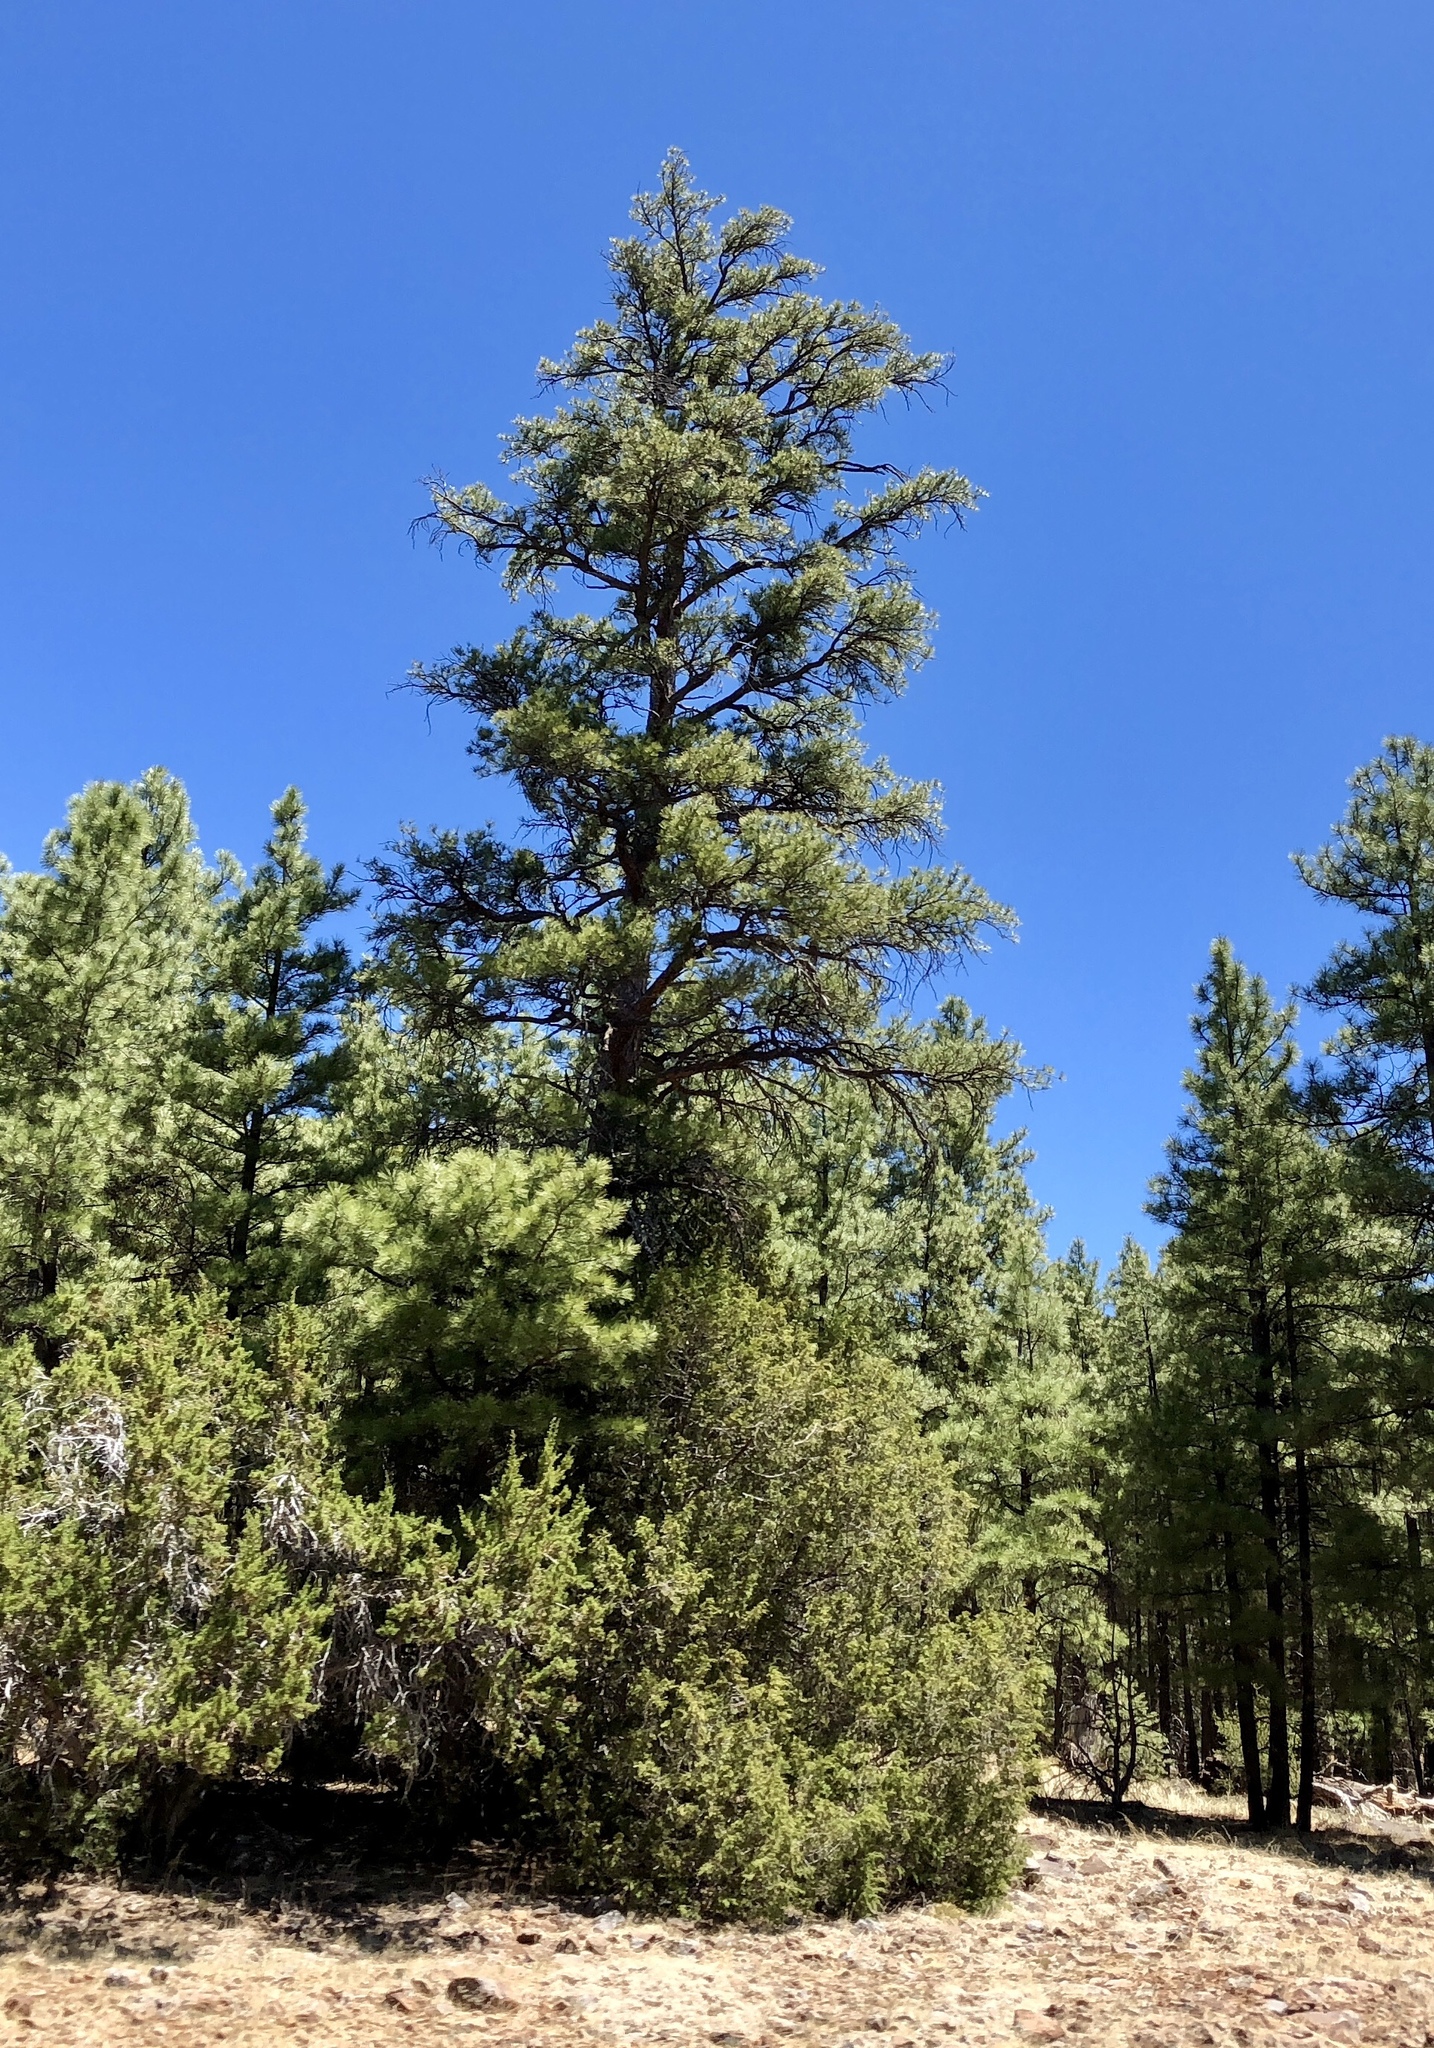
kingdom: Plantae
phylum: Tracheophyta
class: Pinopsida
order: Pinales
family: Pinaceae
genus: Pinus
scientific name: Pinus ponderosa
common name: Western yellow-pine
